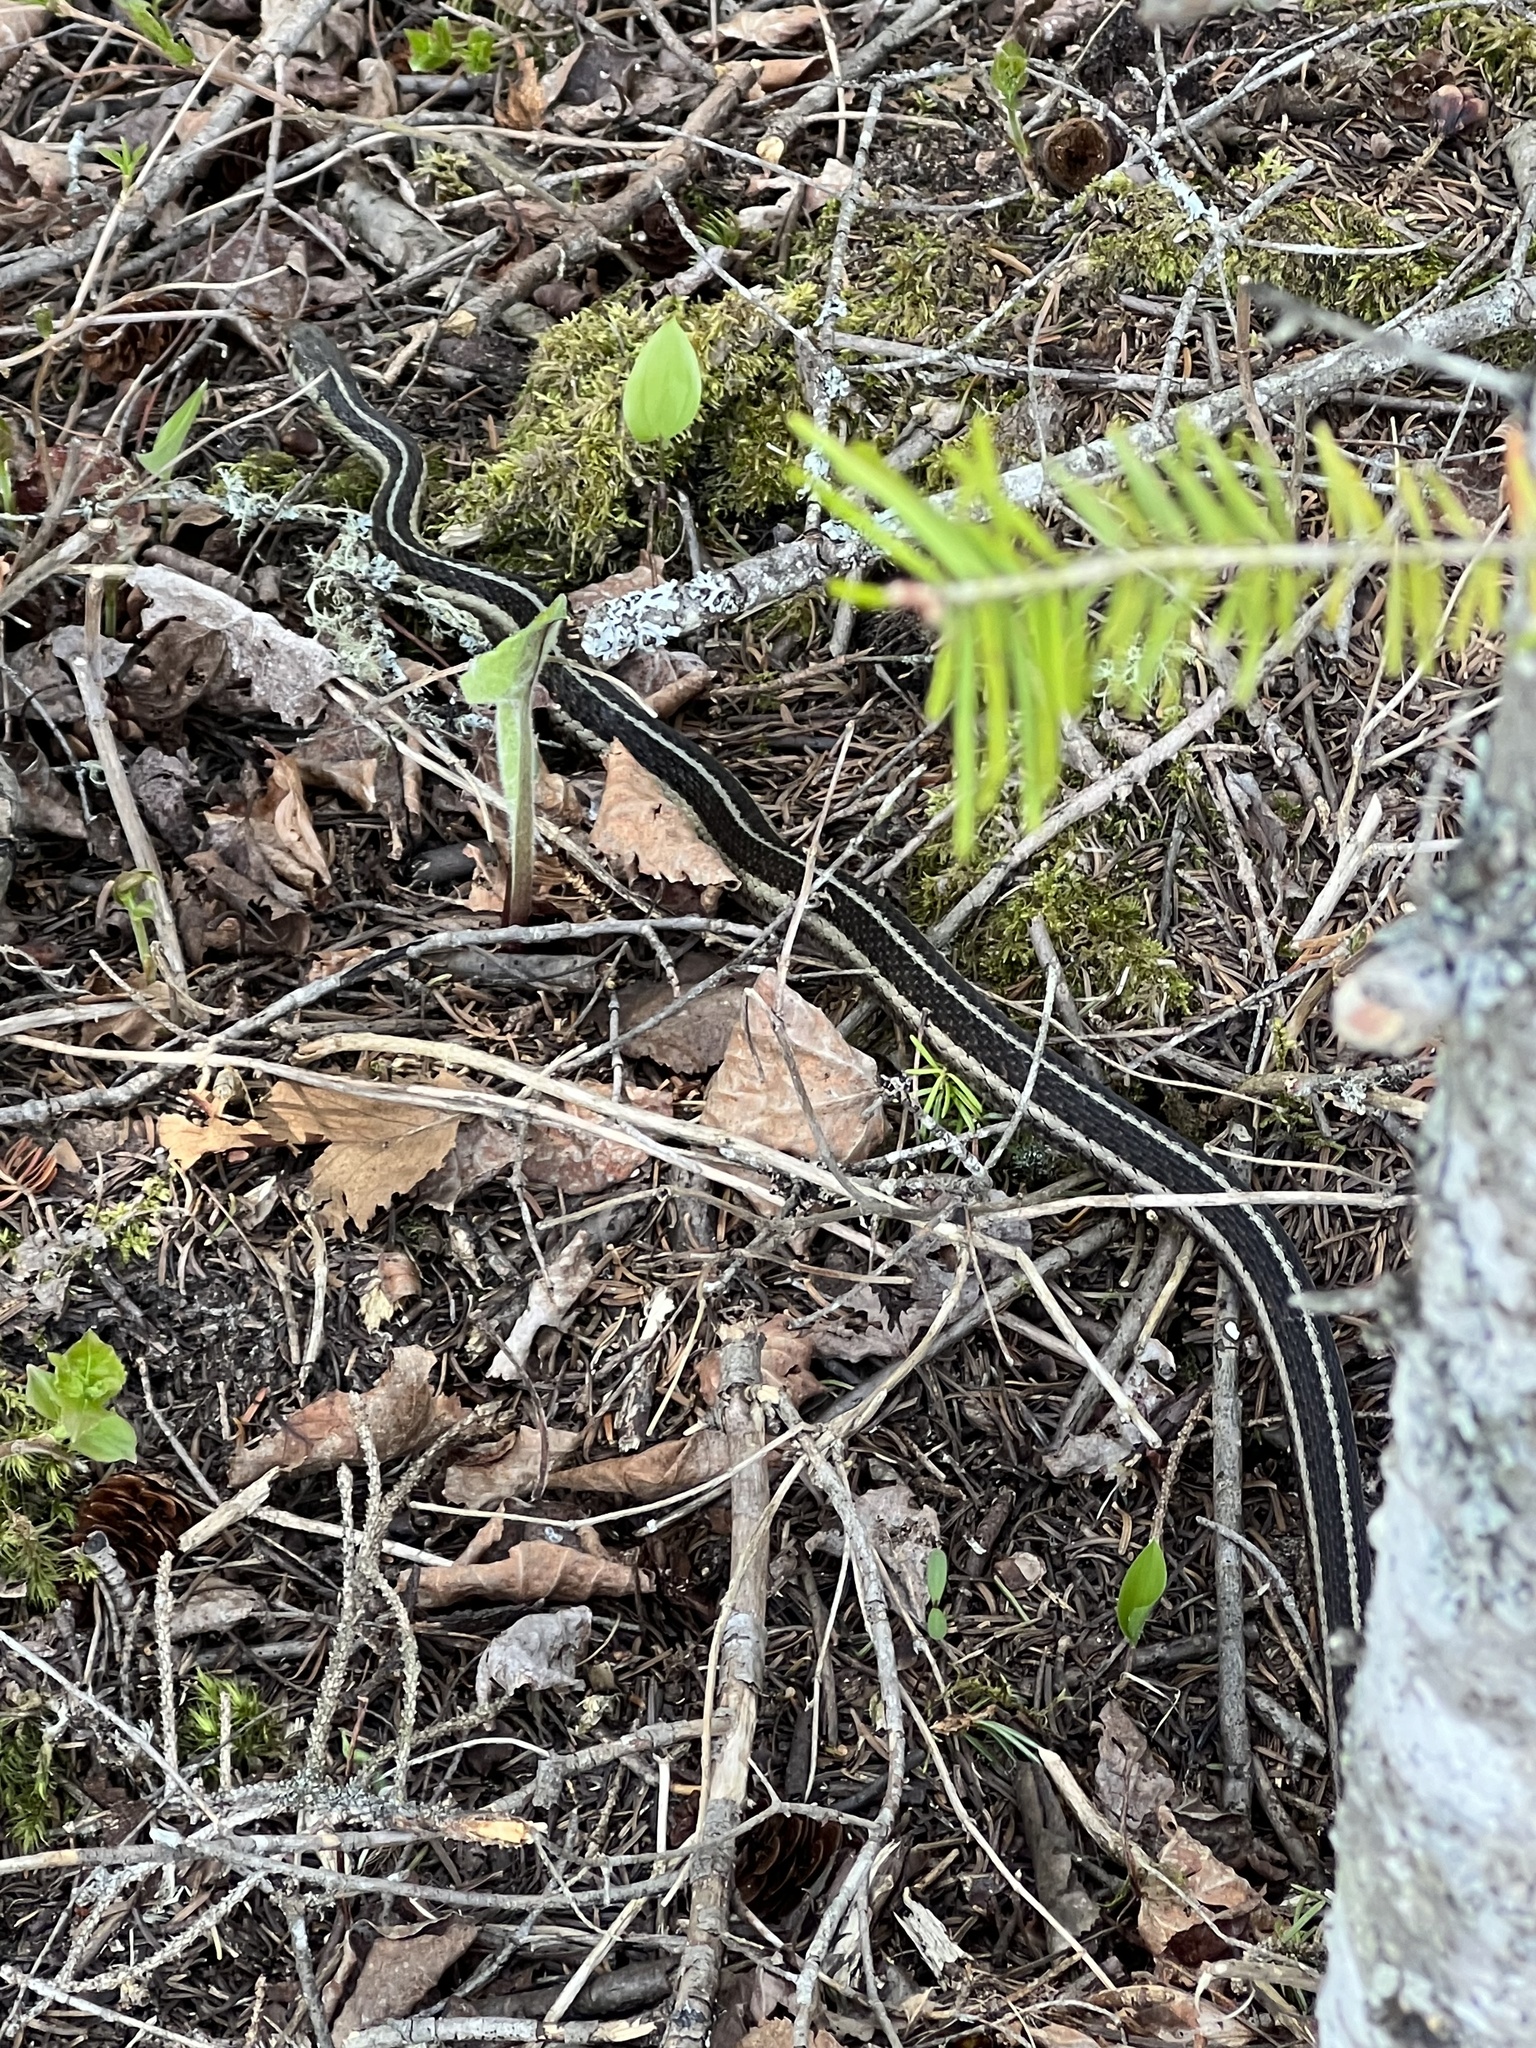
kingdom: Animalia
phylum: Chordata
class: Squamata
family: Colubridae
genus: Thamnophis
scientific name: Thamnophis sirtalis
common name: Common garter snake
